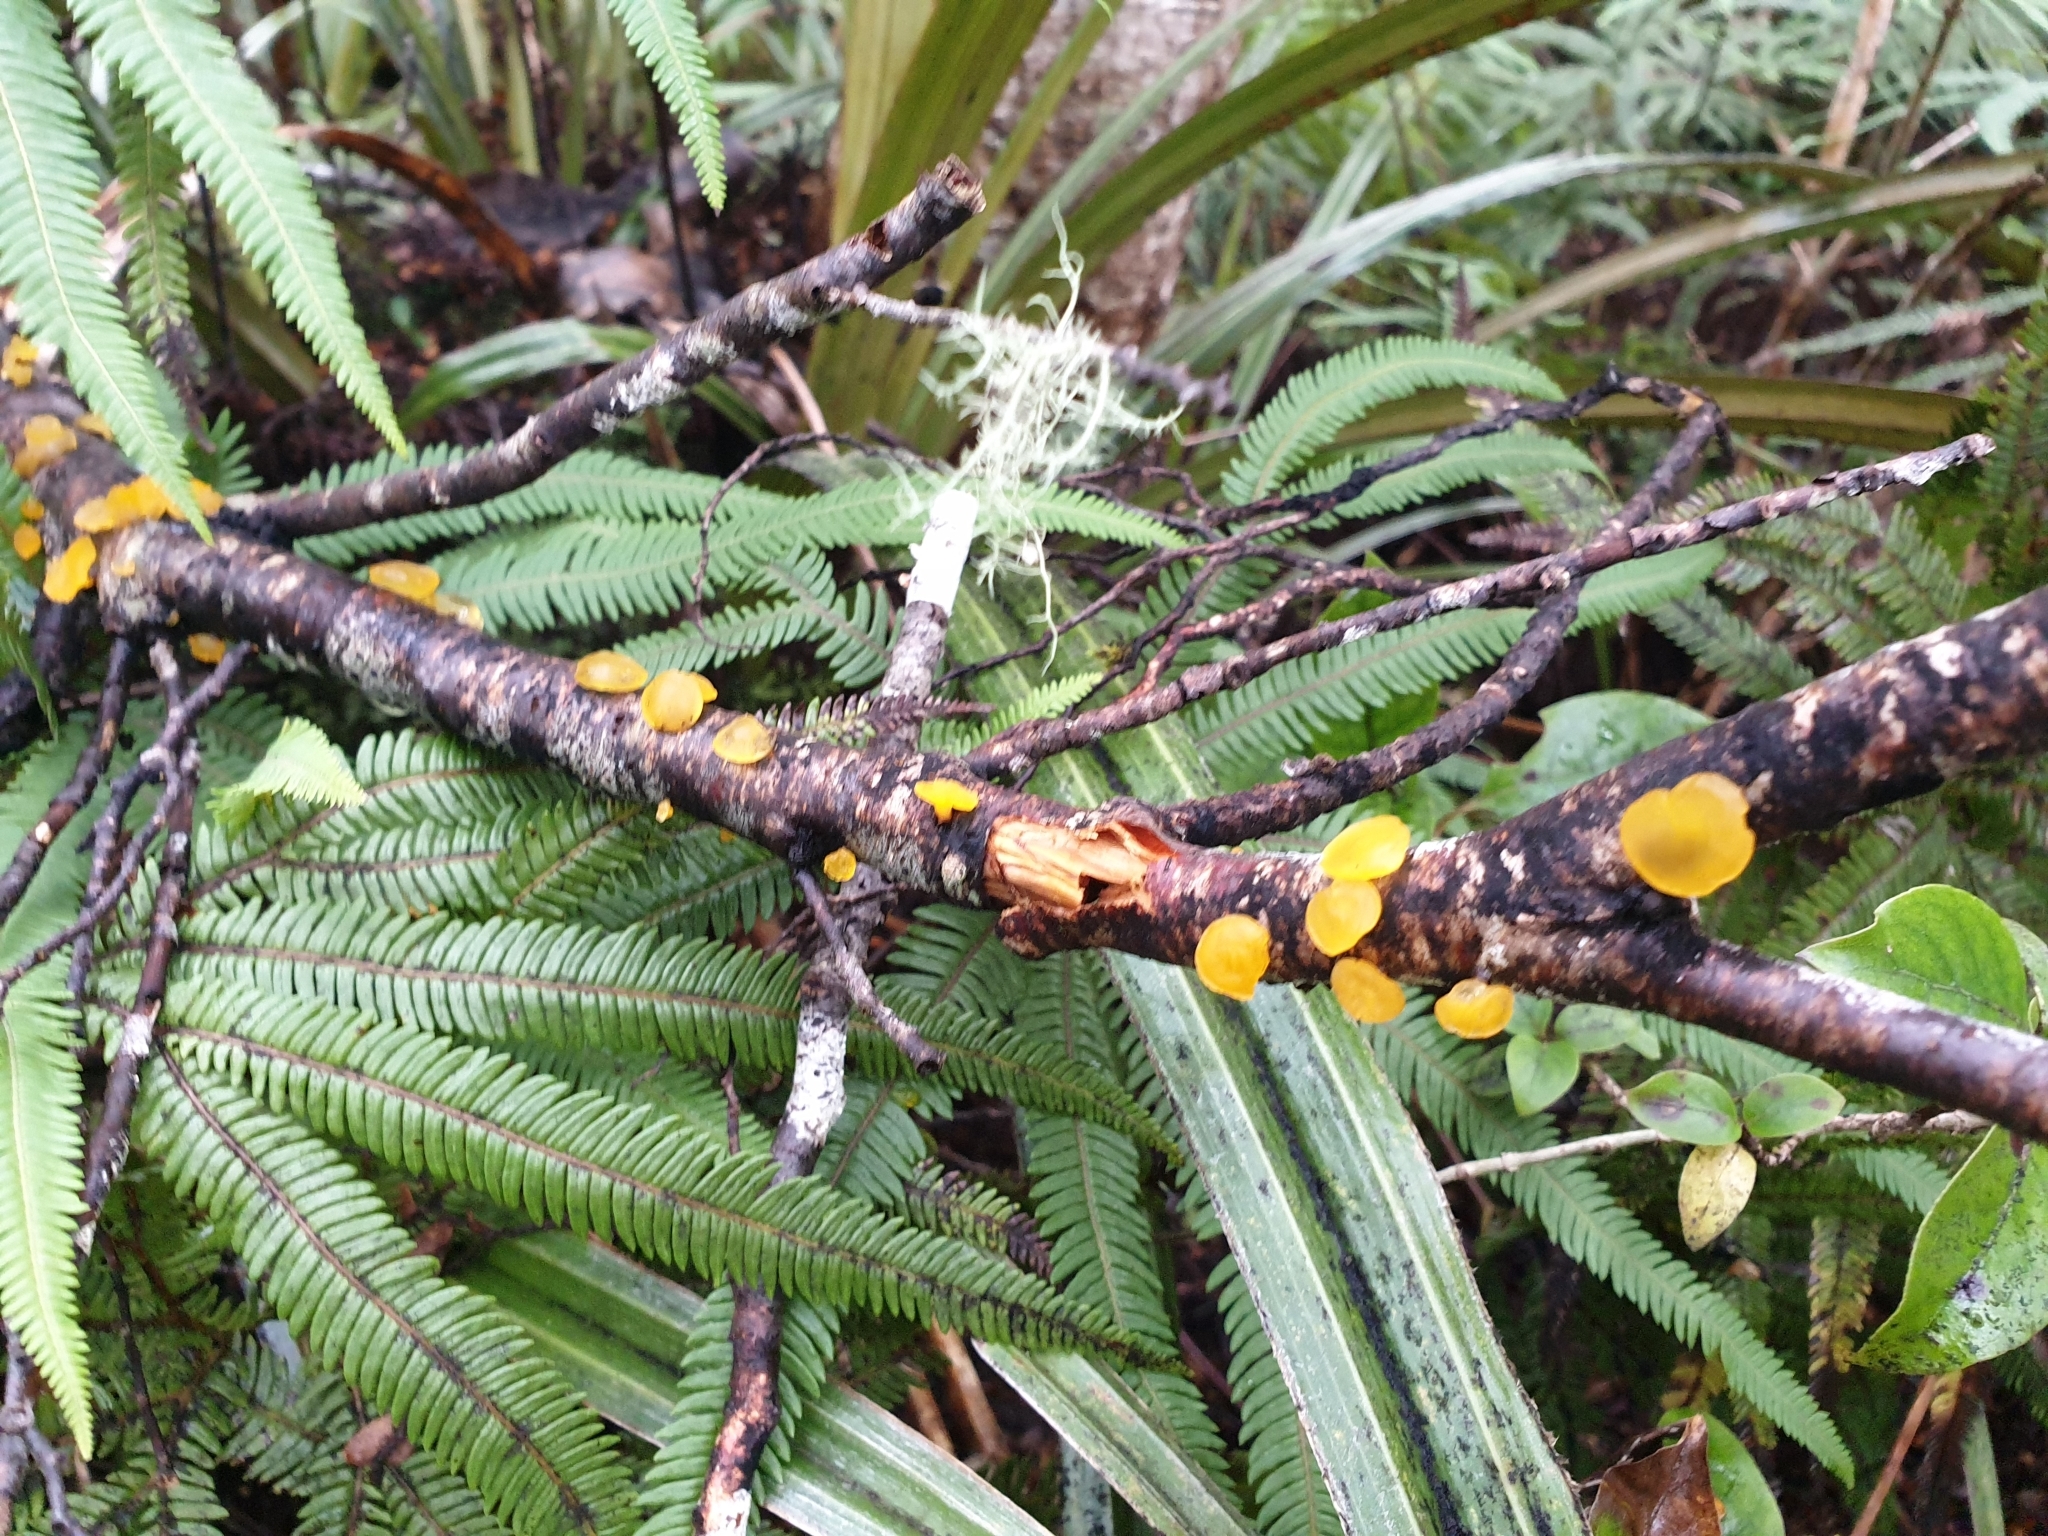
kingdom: Fungi
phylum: Basidiomycota
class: Dacrymycetes
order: Dacrymycetales
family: Dacrymycetaceae
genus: Heterotextus
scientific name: Heterotextus miltinus
